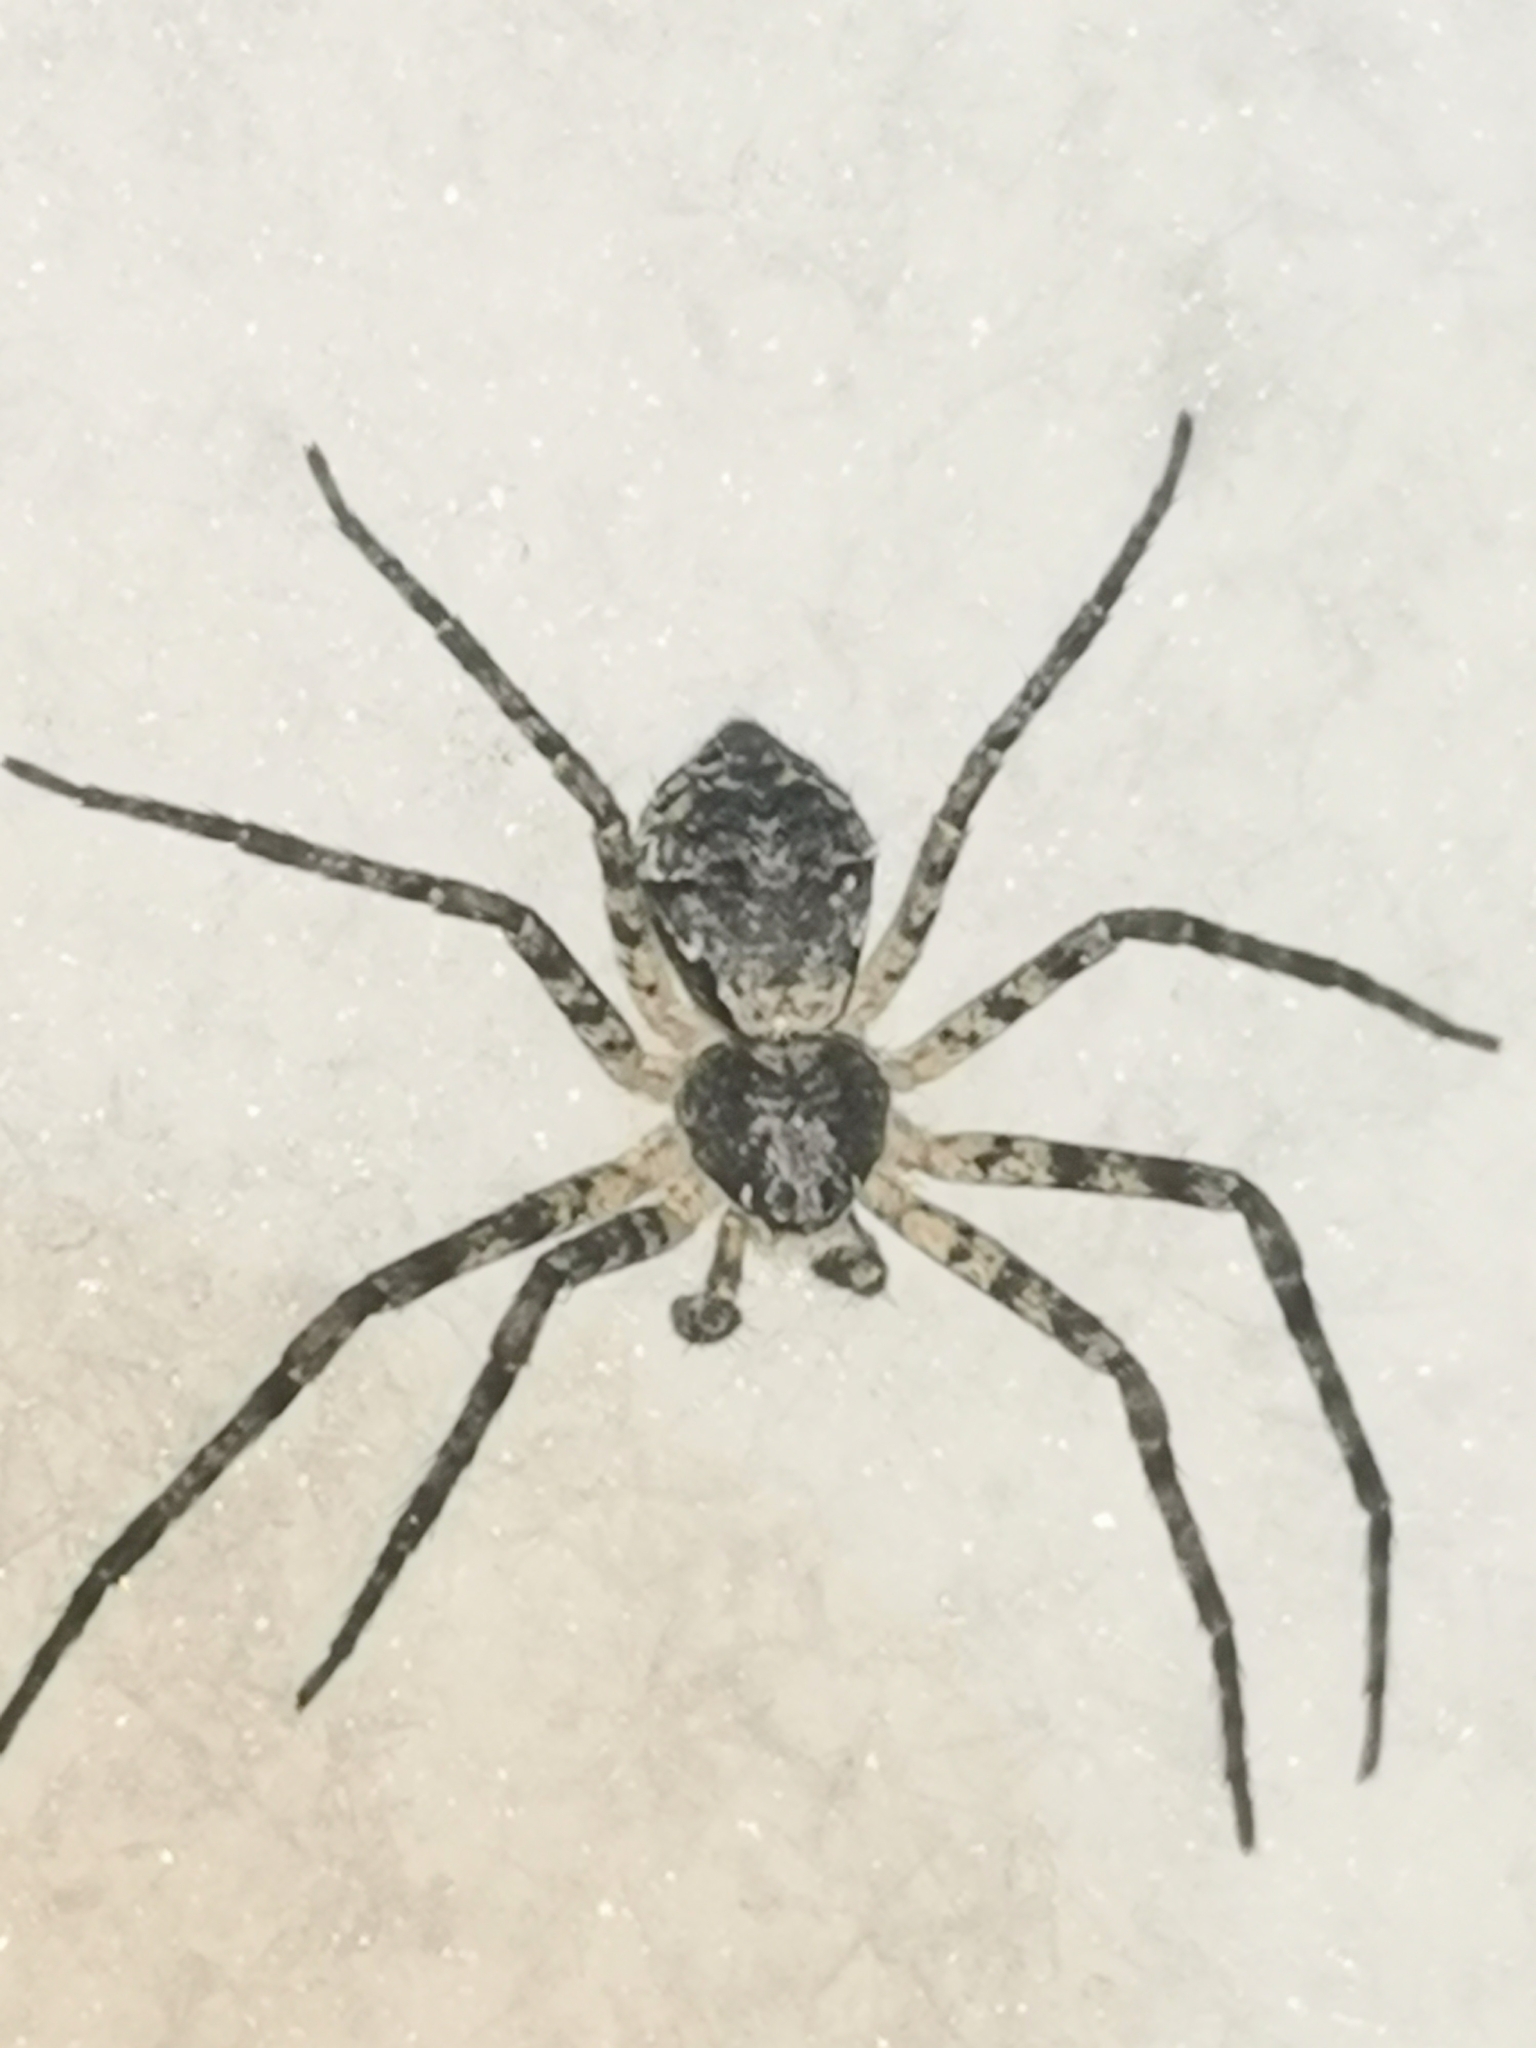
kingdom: Animalia
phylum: Arthropoda
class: Arachnida
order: Araneae
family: Philodromidae
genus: Philodromus
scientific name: Philodromus margaritatus
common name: Lichen running-spider
